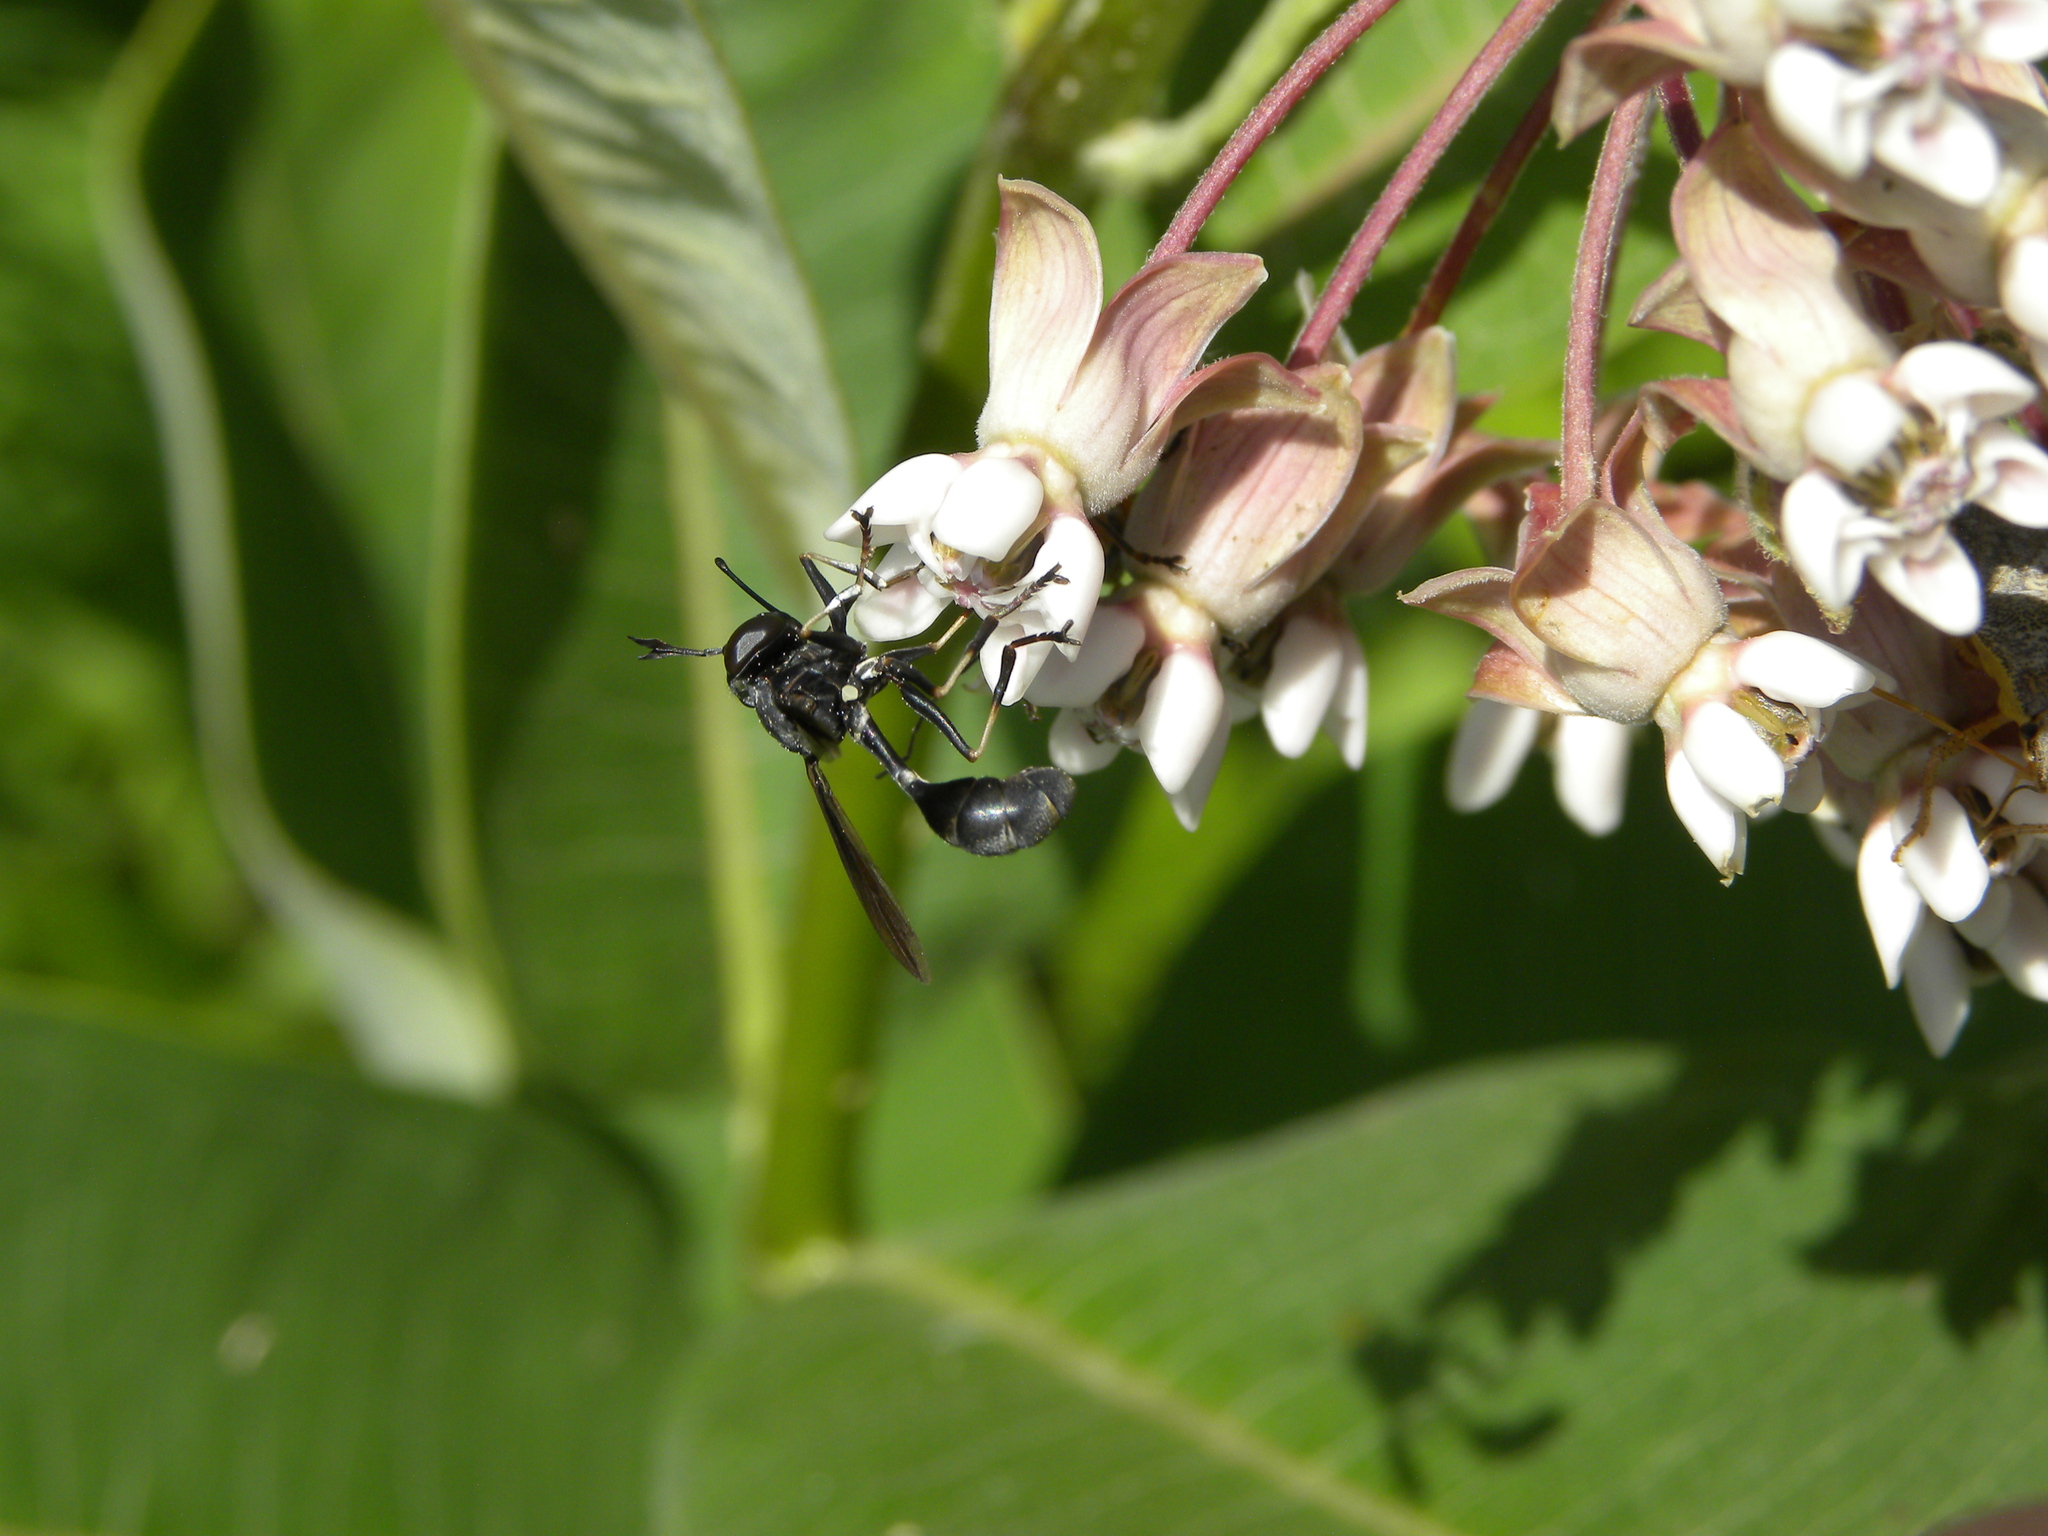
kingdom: Animalia
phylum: Arthropoda
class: Insecta
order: Diptera
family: Conopidae
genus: Physocephala
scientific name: Physocephala tibialis
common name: Common eastern physocephala
